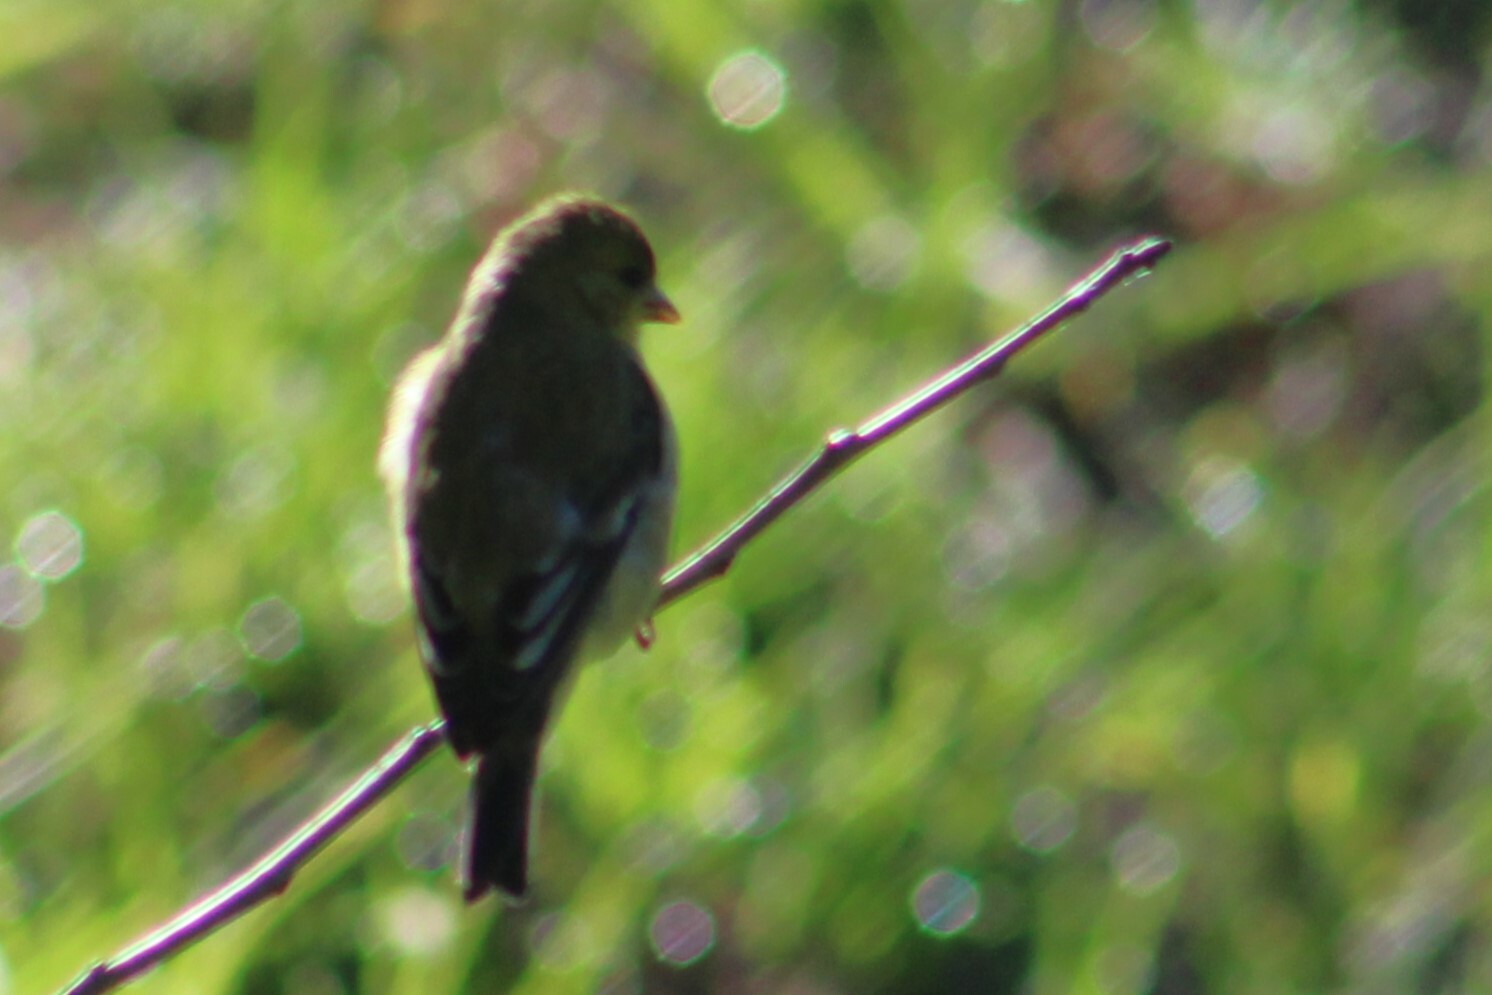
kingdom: Animalia
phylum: Chordata
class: Aves
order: Passeriformes
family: Fringillidae
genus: Spinus
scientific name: Spinus psaltria
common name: Lesser goldfinch
